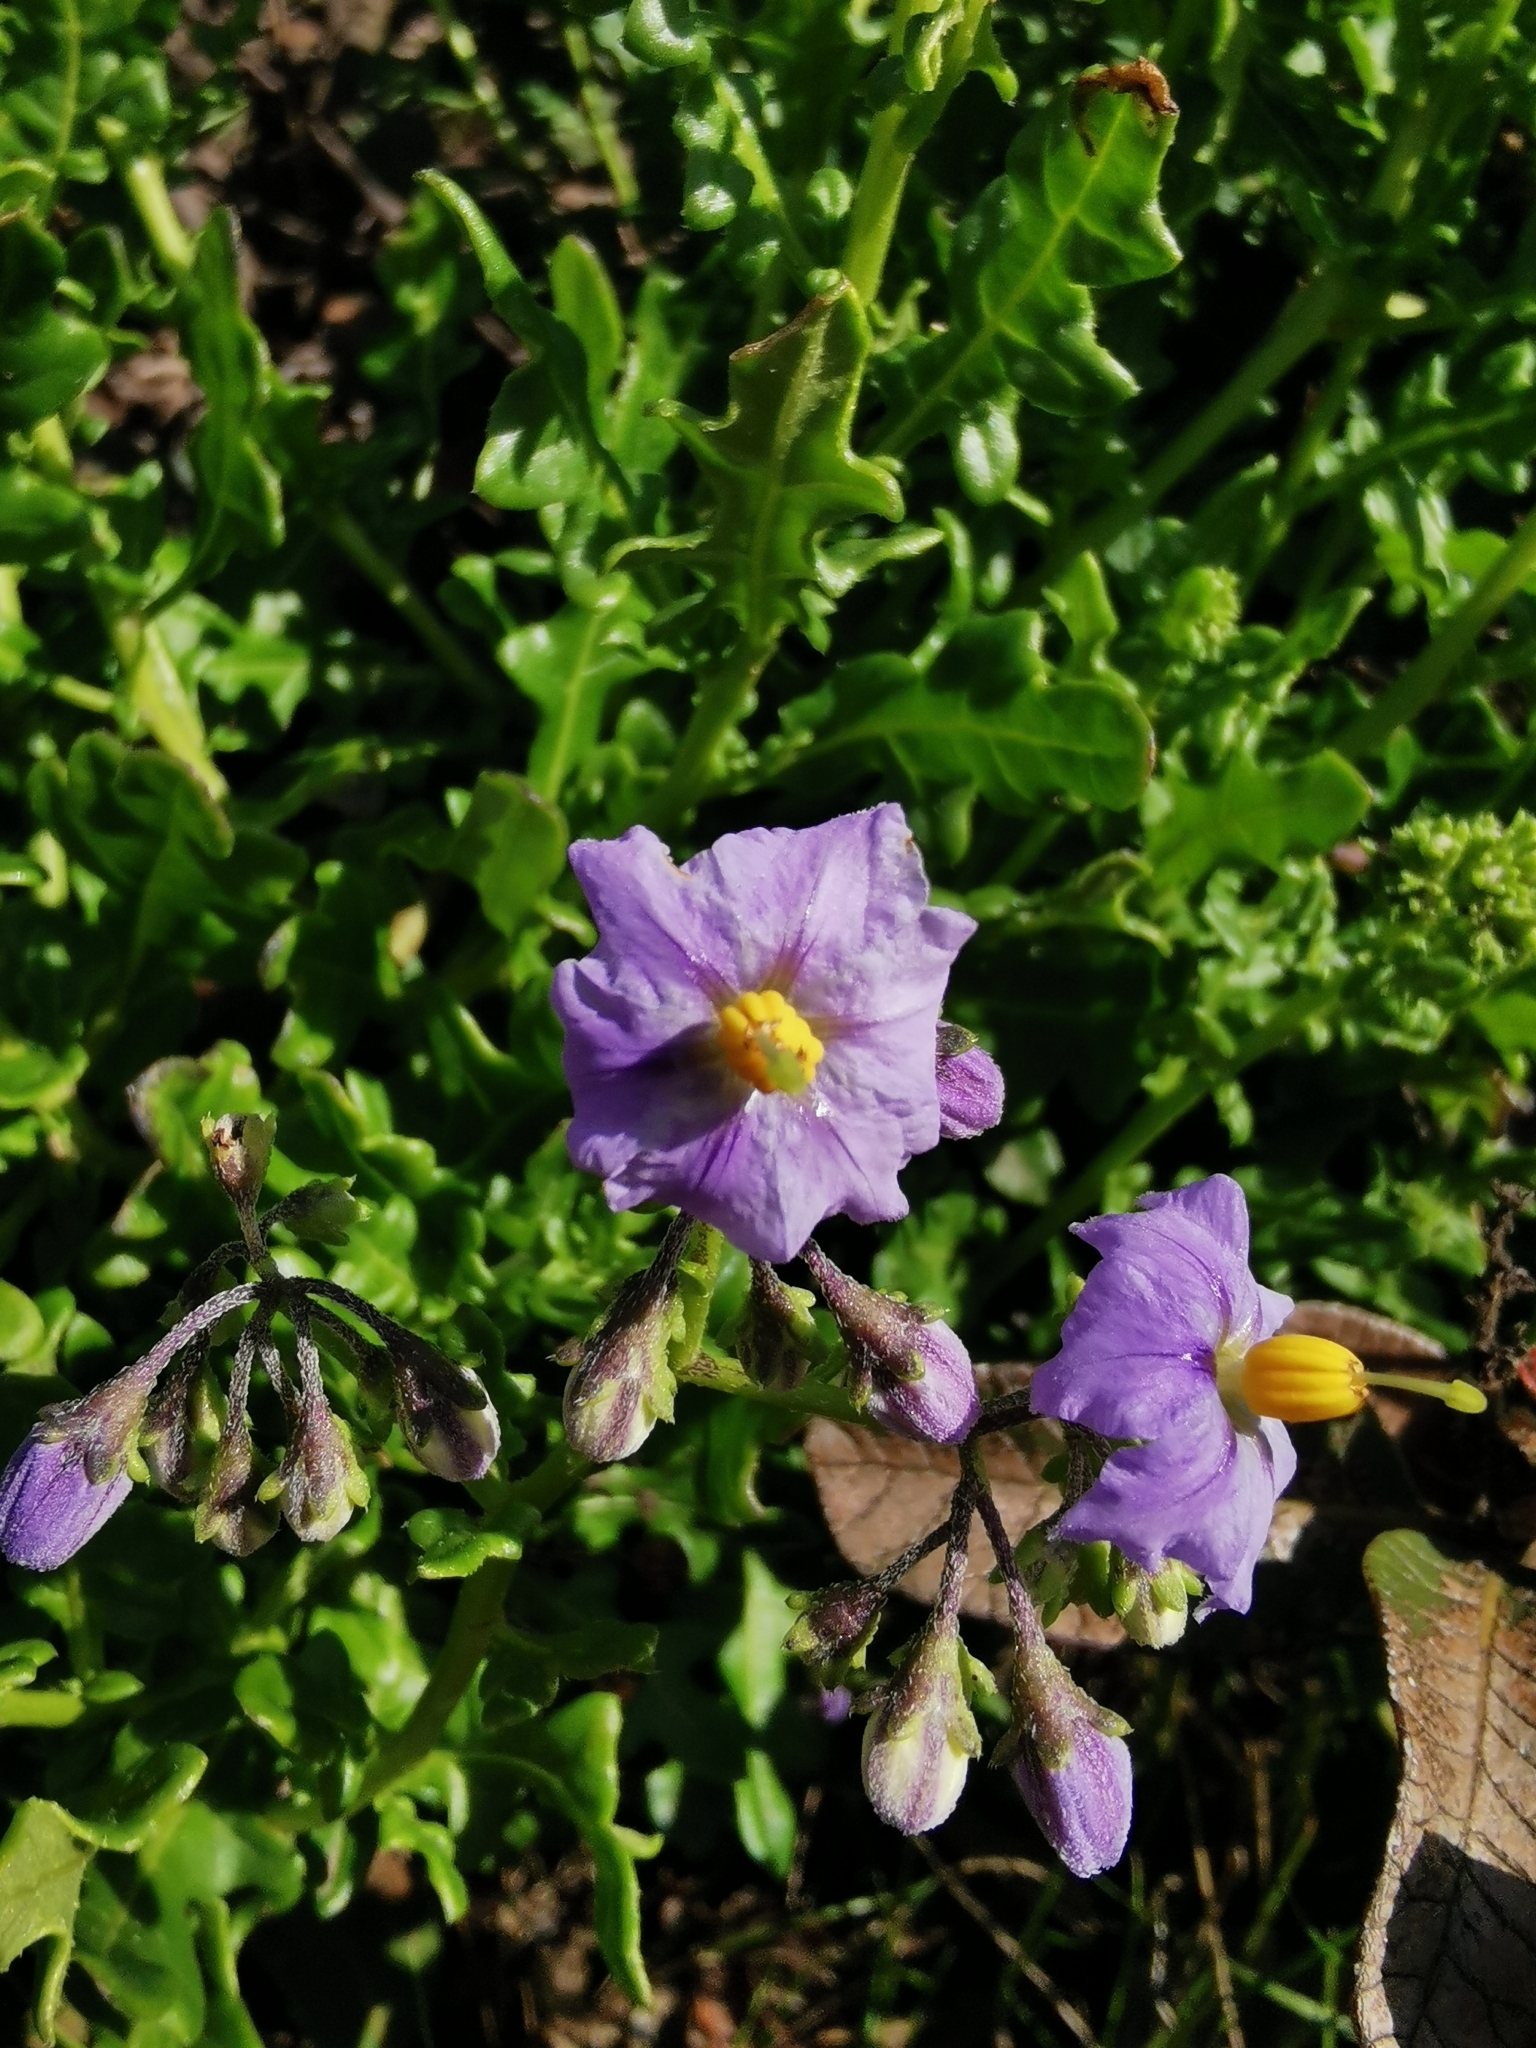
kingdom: Plantae
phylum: Tracheophyta
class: Magnoliopsida
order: Solanales
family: Solanaceae
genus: Solanum
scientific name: Solanum pinnatum
